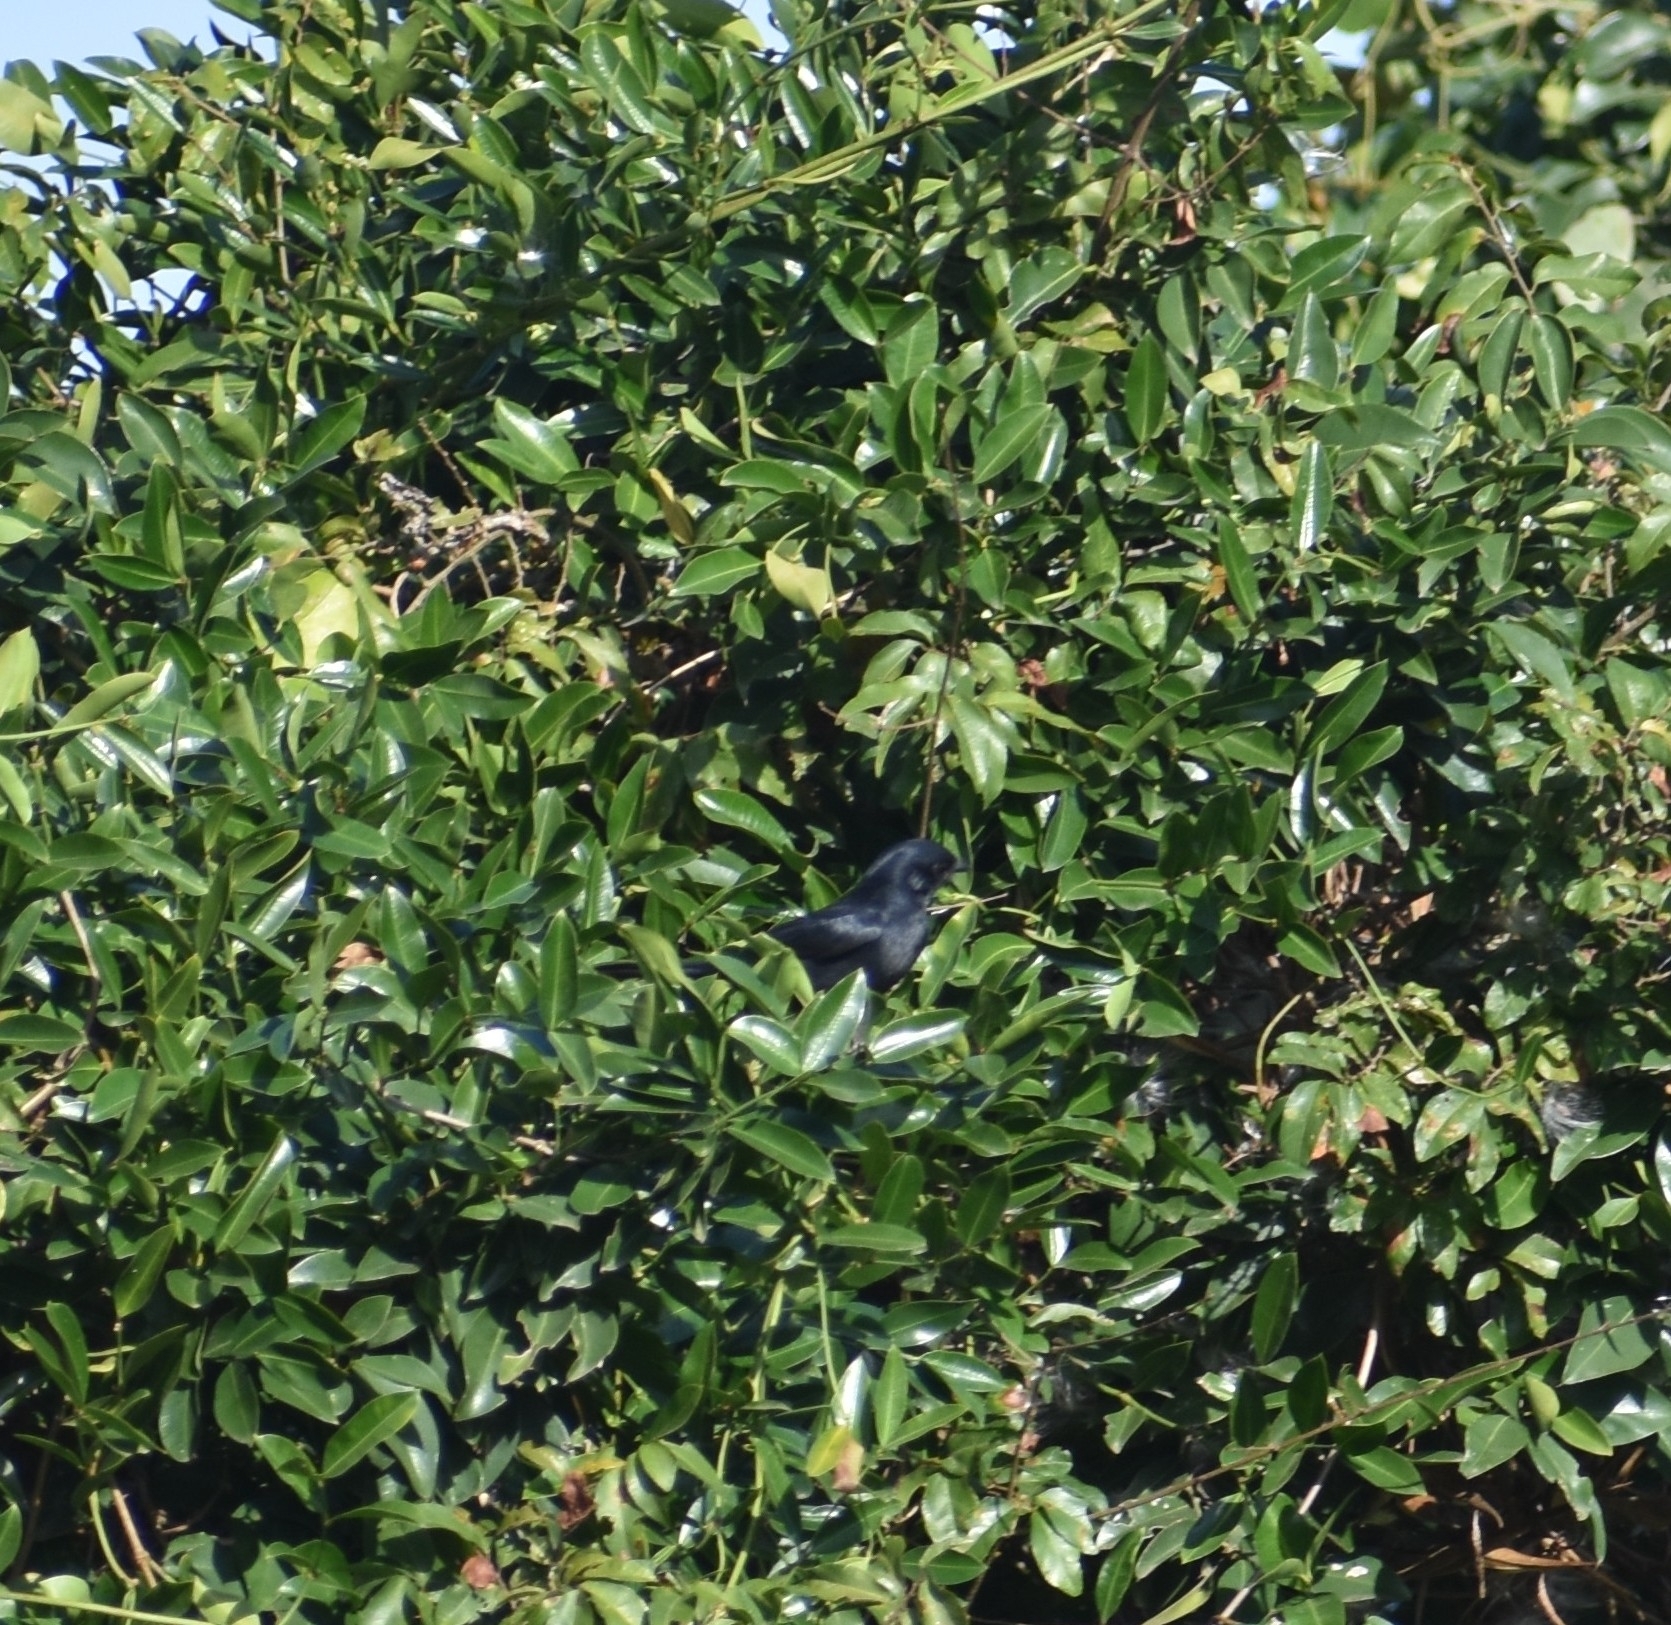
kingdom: Animalia
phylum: Chordata
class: Aves
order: Passeriformes
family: Muscicapidae
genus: Melaenornis
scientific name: Melaenornis pammelaina
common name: Southern black flycatcher
